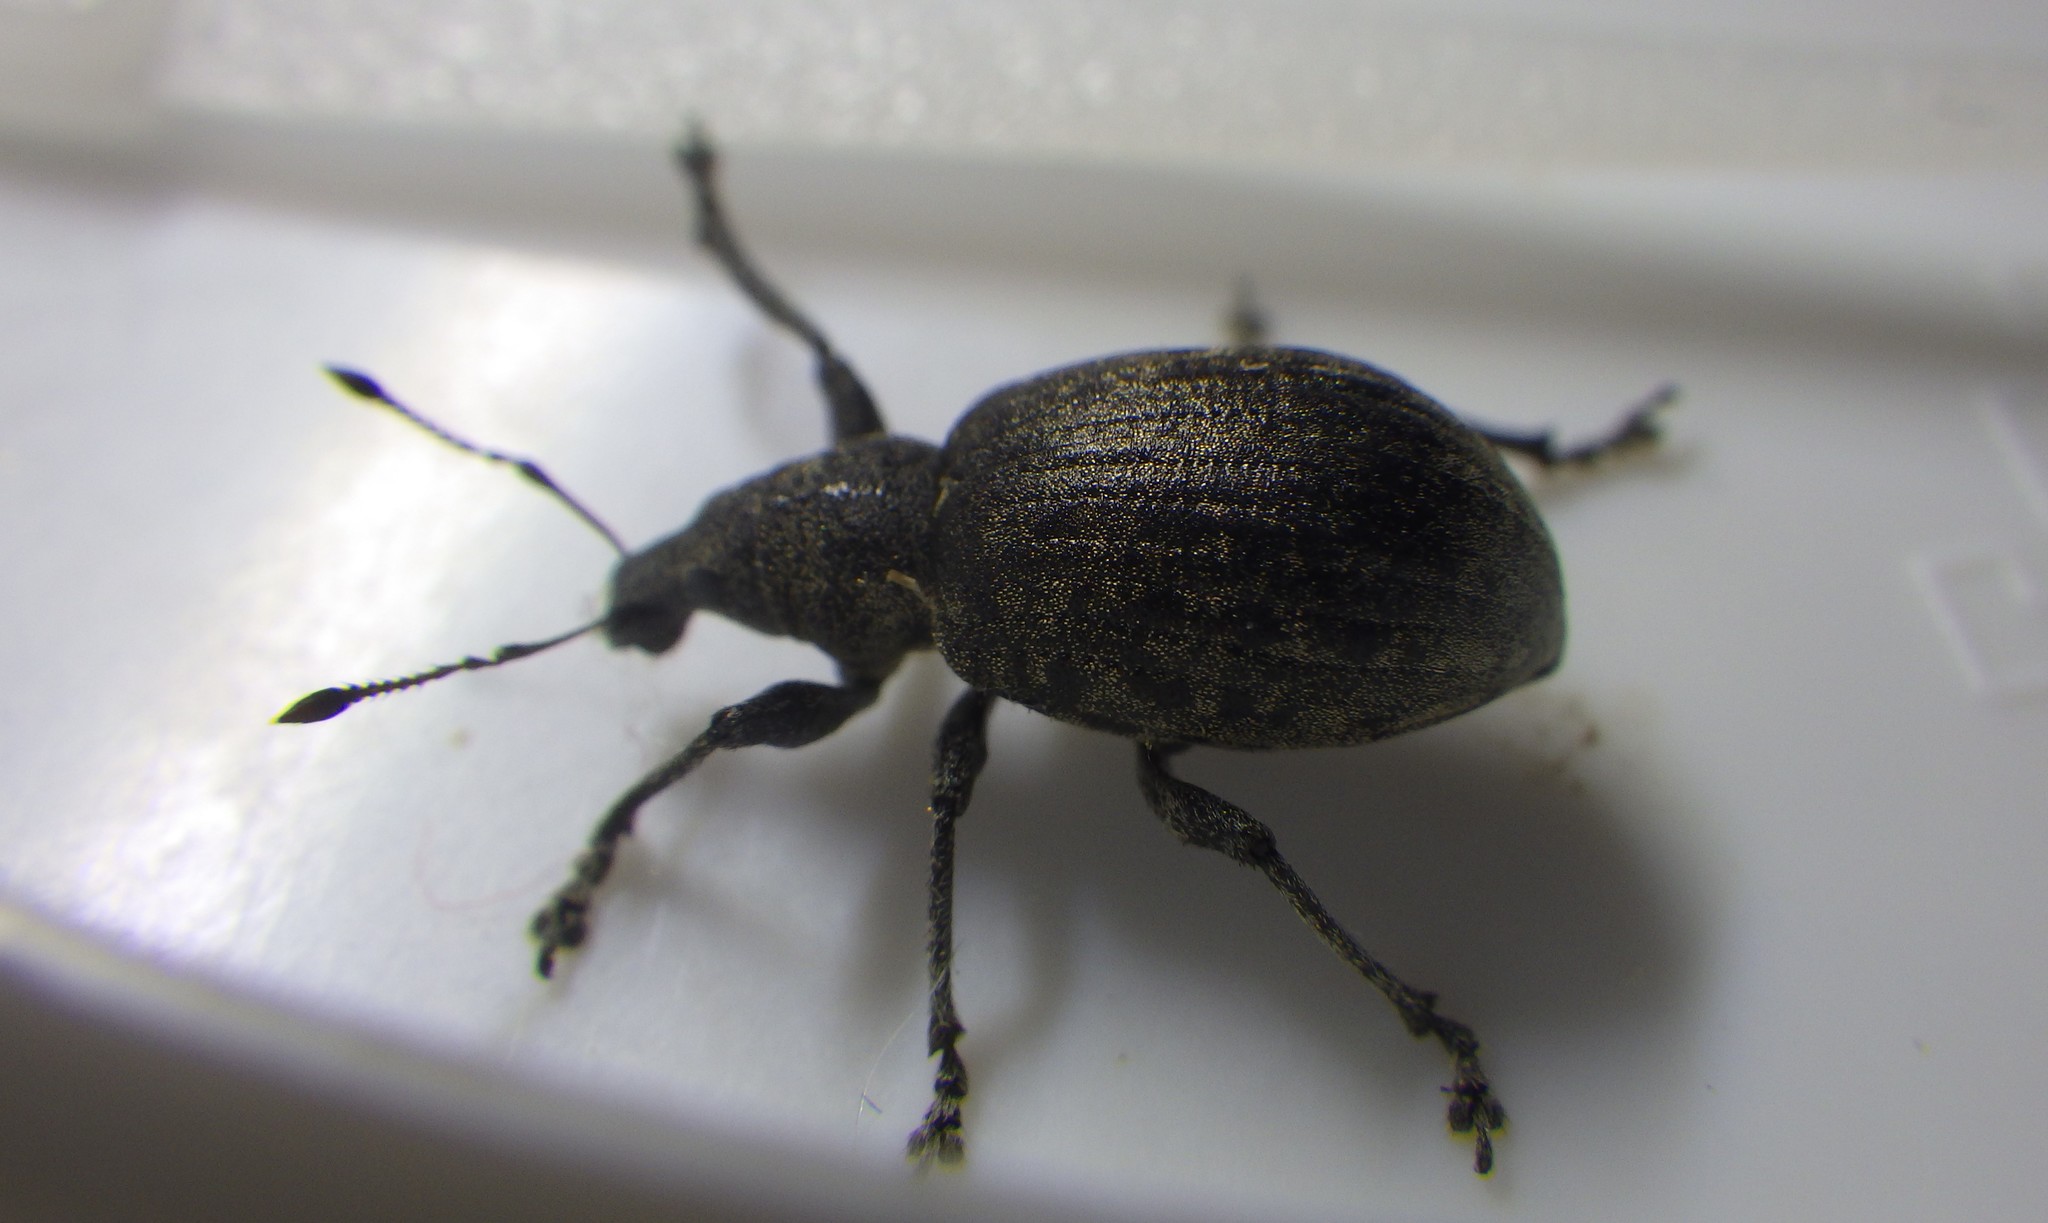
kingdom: Animalia
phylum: Arthropoda
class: Insecta
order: Coleoptera
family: Curculionidae
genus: Liophloeus
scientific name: Liophloeus tessulatus
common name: Weevil
